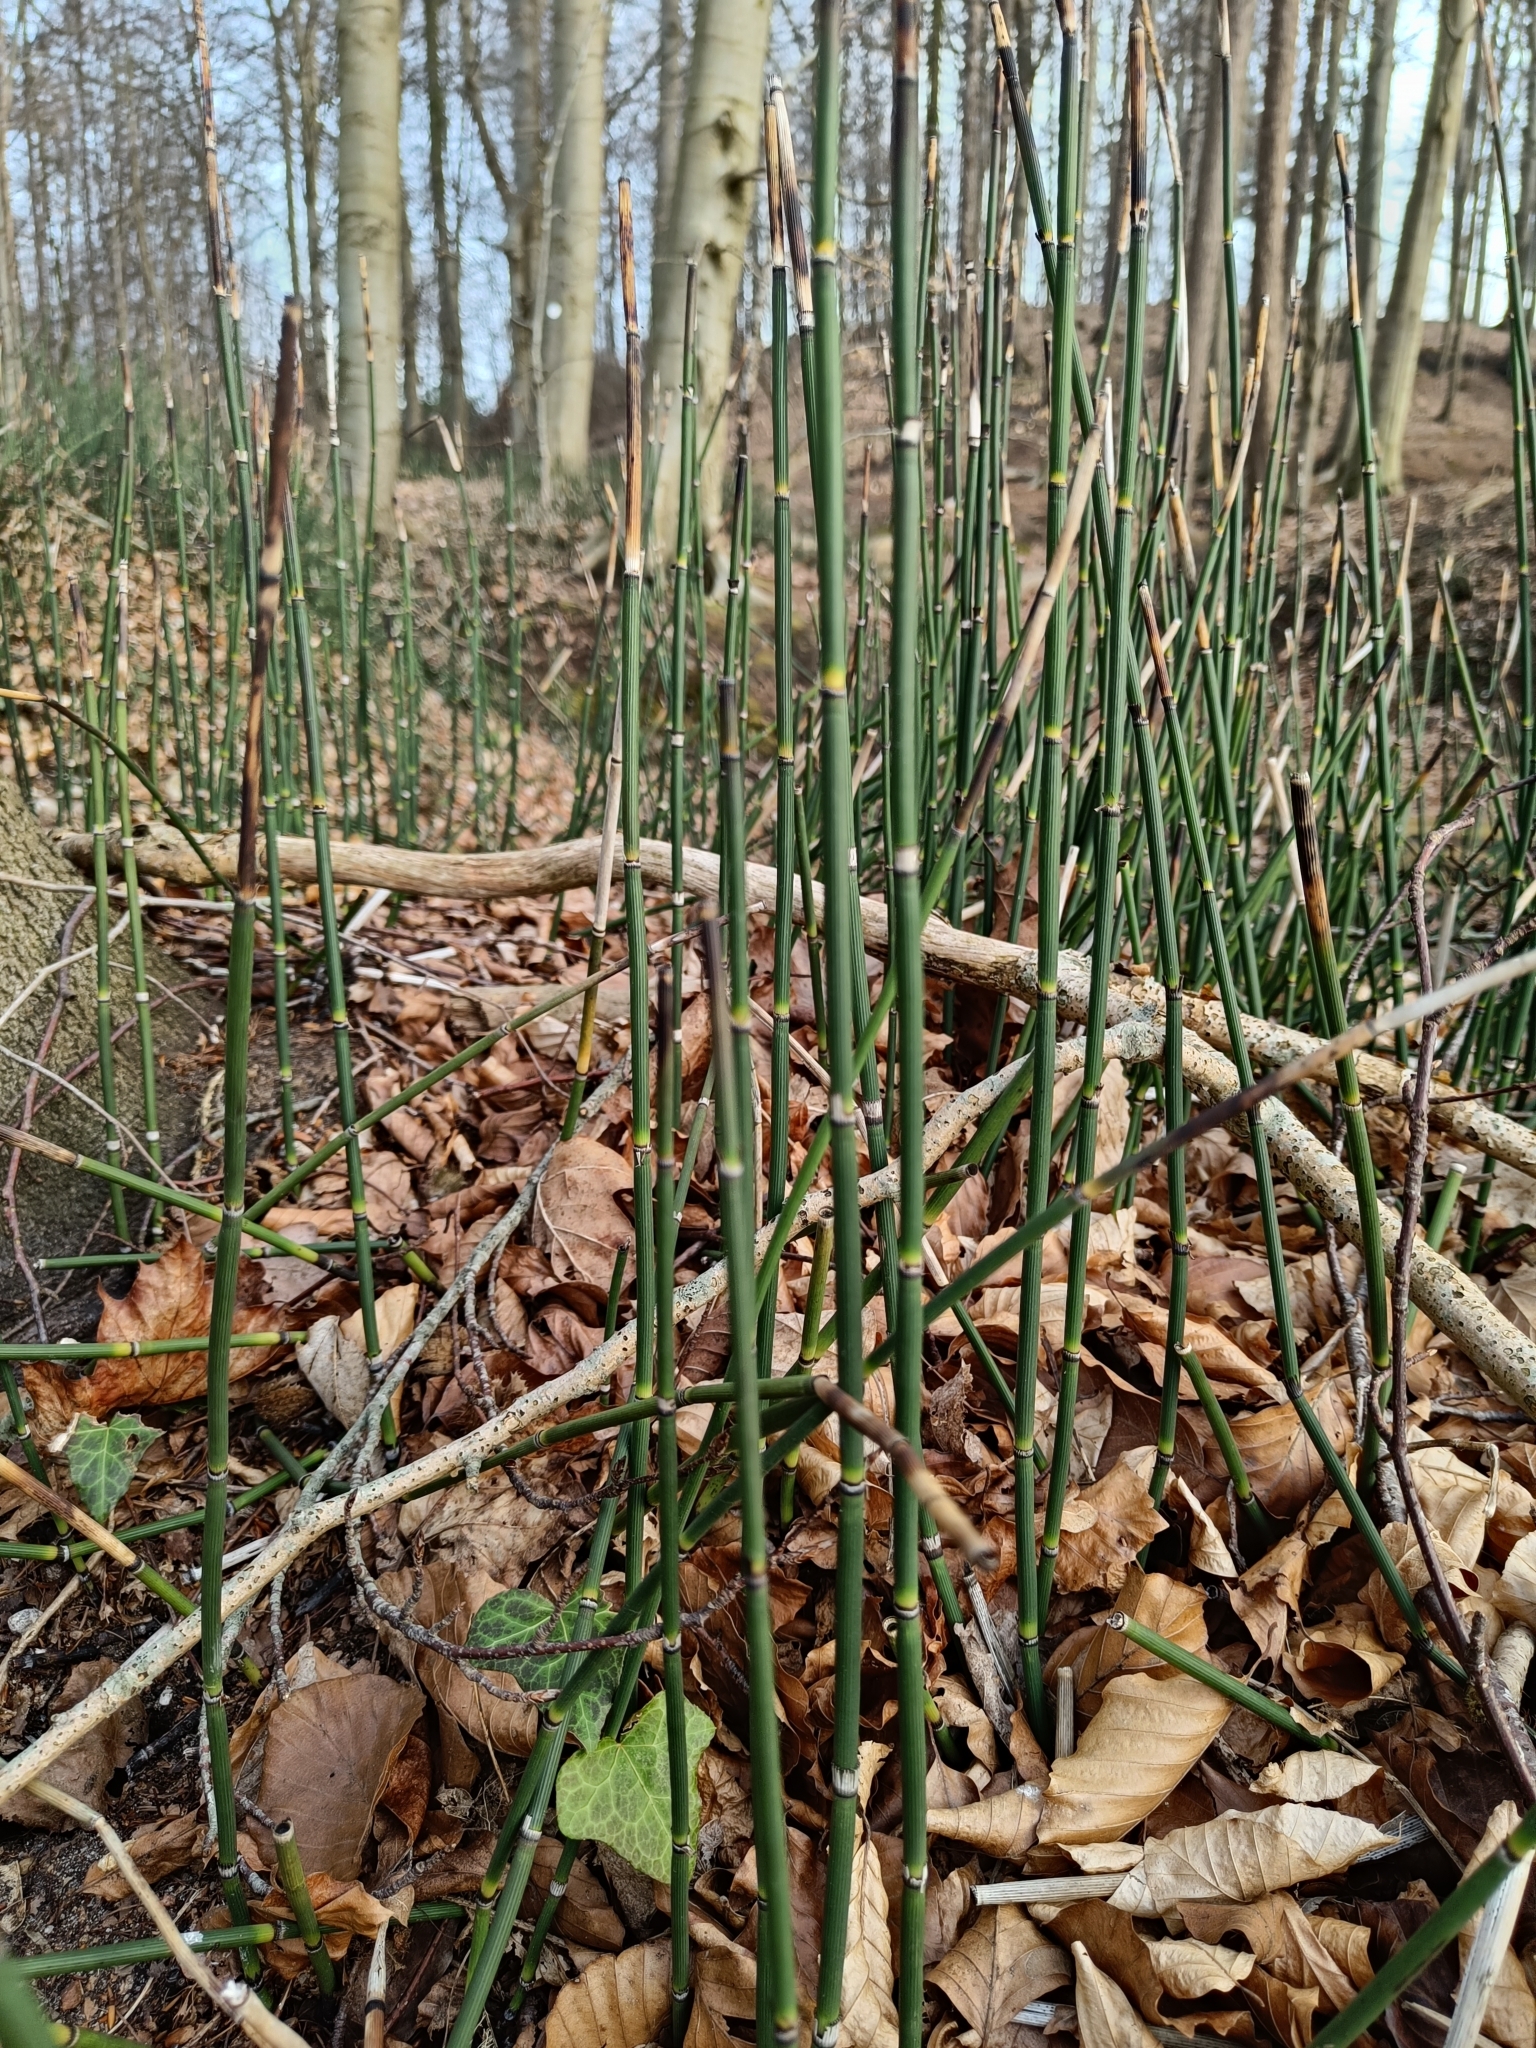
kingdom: Plantae
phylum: Tracheophyta
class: Polypodiopsida
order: Equisetales
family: Equisetaceae
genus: Equisetum
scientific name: Equisetum hyemale
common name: Rough horsetail
